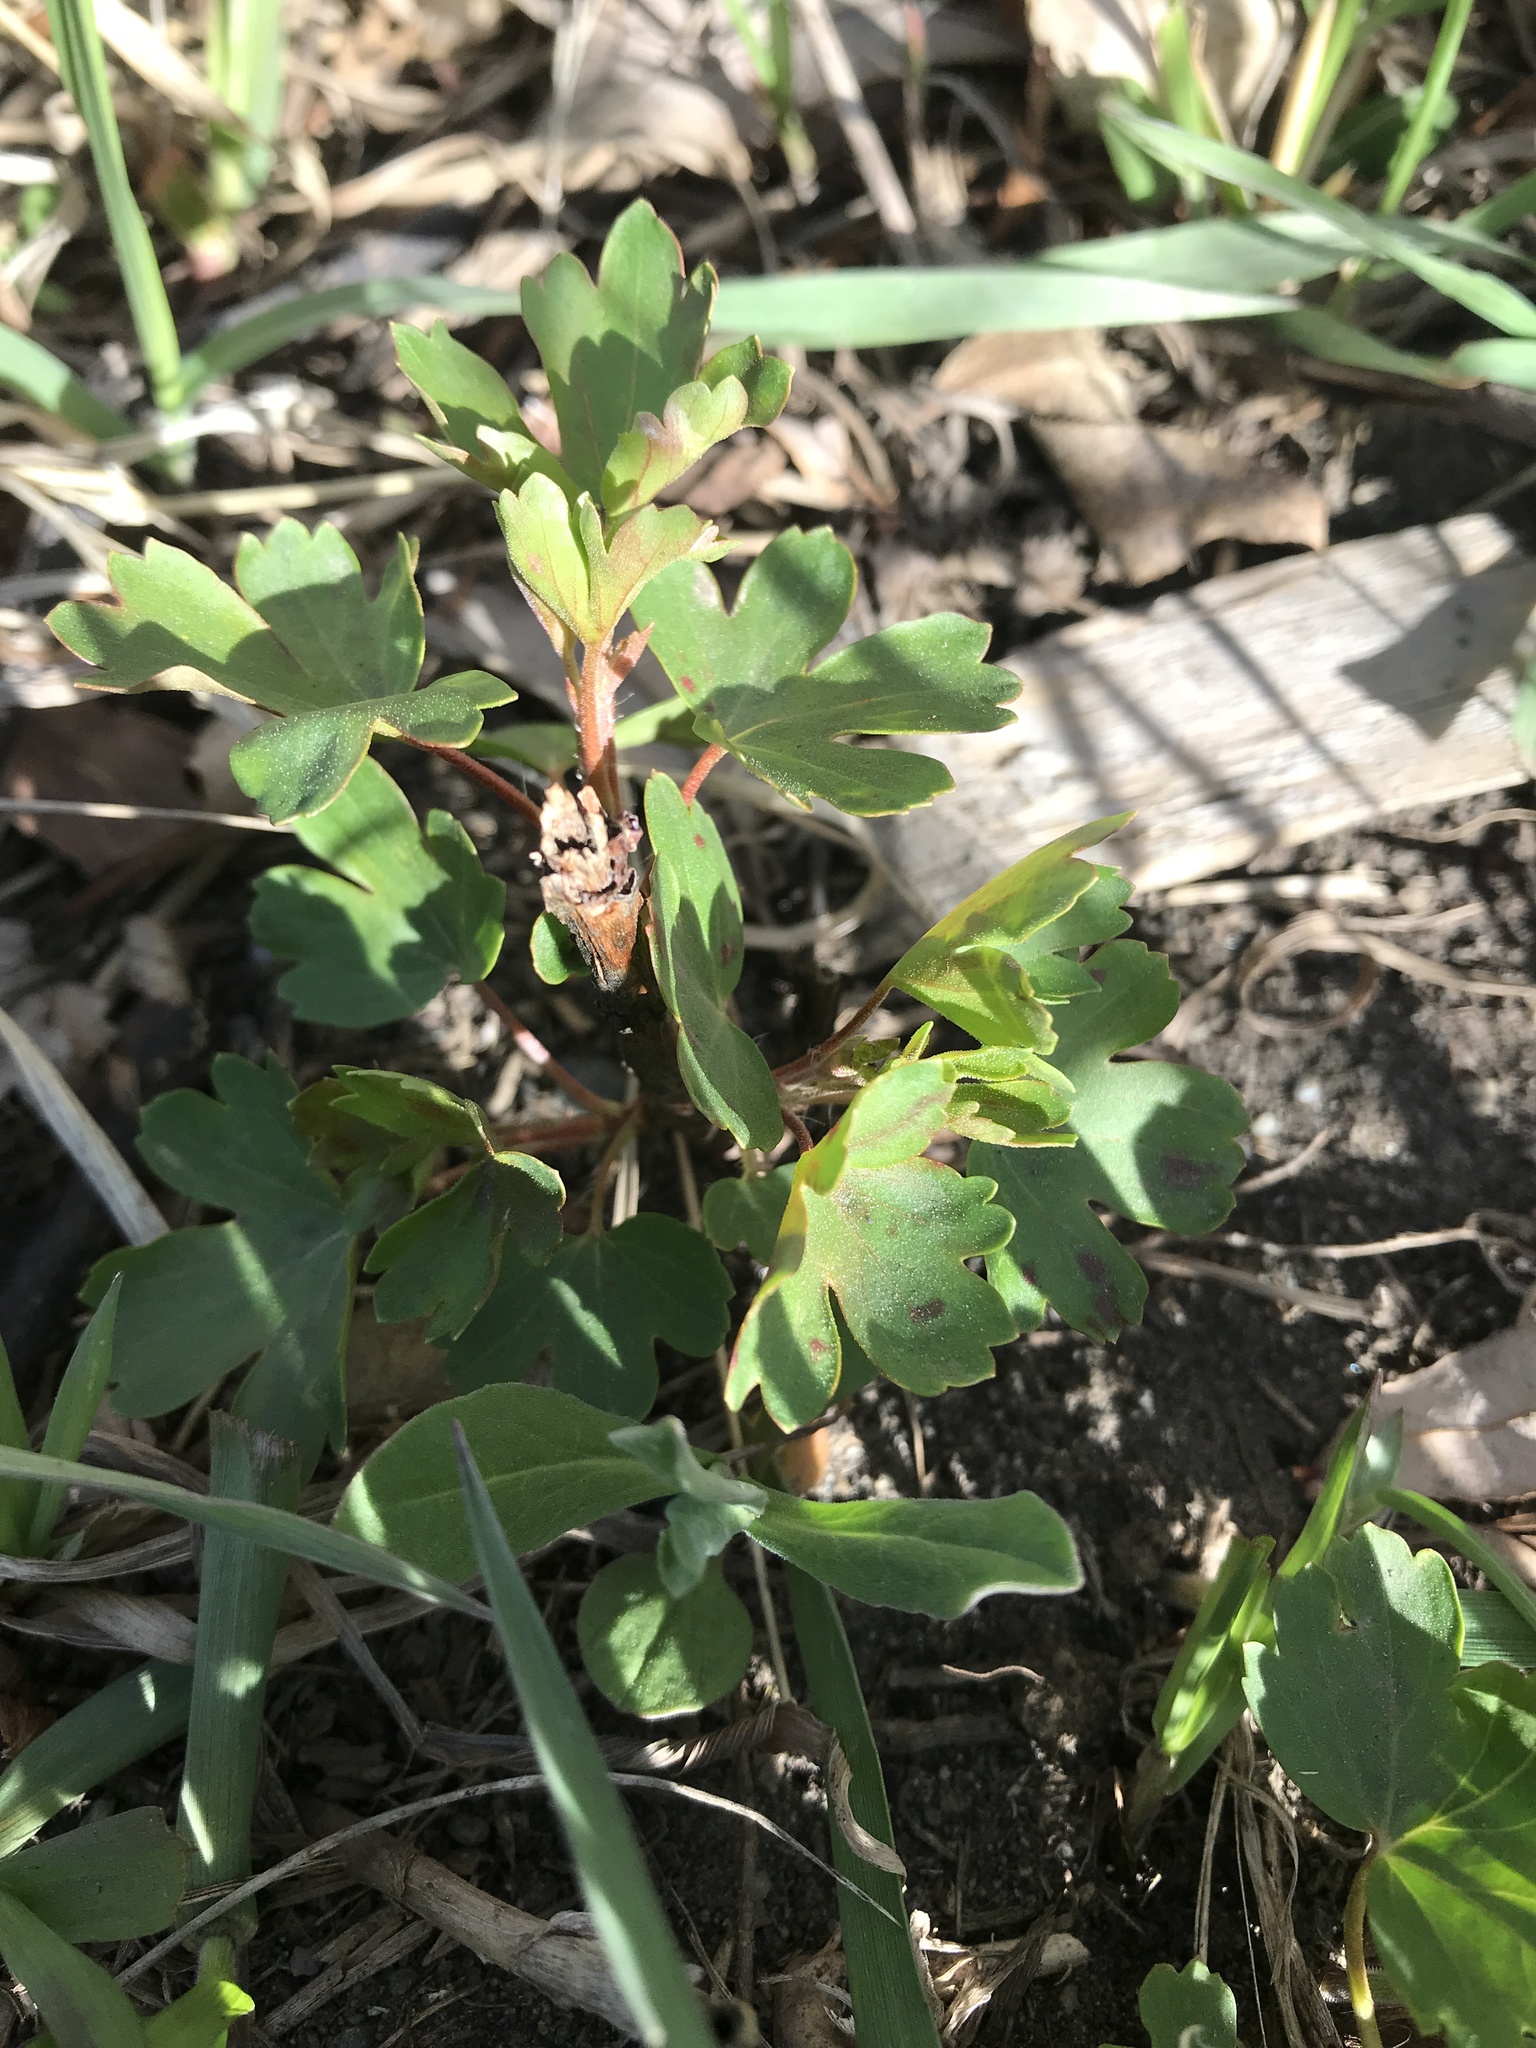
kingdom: Plantae
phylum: Tracheophyta
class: Magnoliopsida
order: Saxifragales
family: Grossulariaceae
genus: Ribes
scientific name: Ribes aureum
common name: Golden currant
